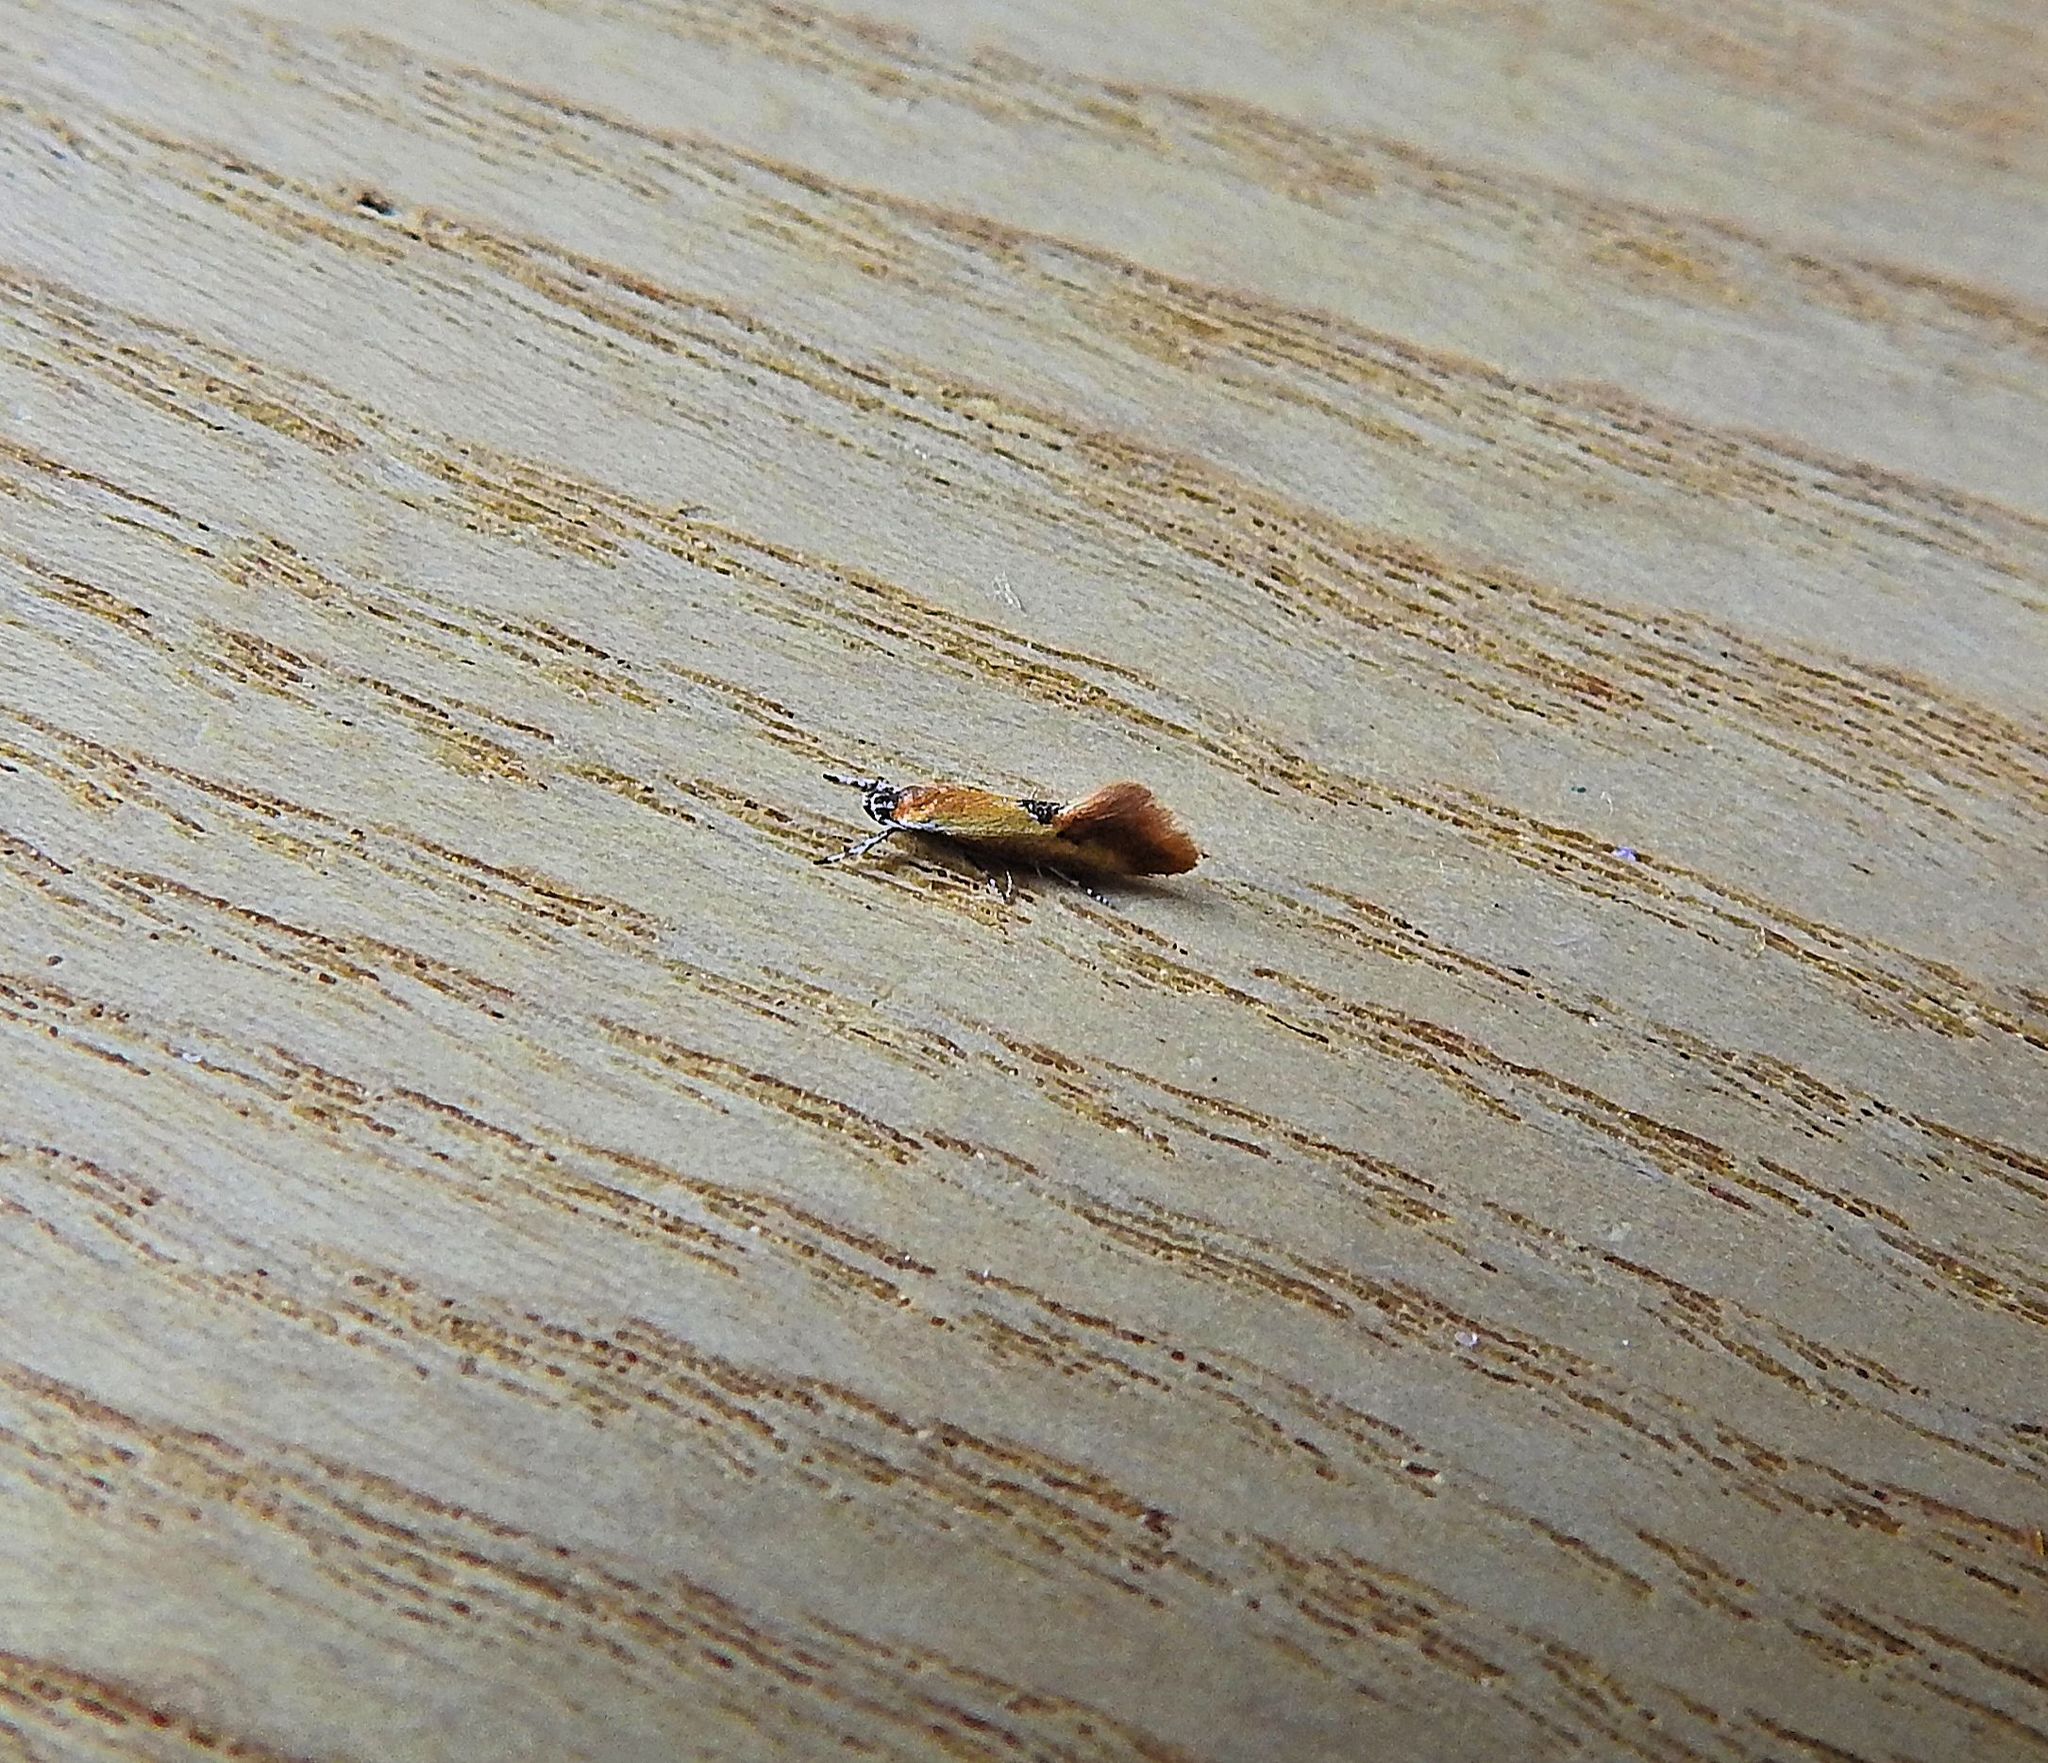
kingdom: Animalia
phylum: Arthropoda
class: Insecta
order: Lepidoptera
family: Oecophoridae
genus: Batia
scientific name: Batia lunaris
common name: Moth
